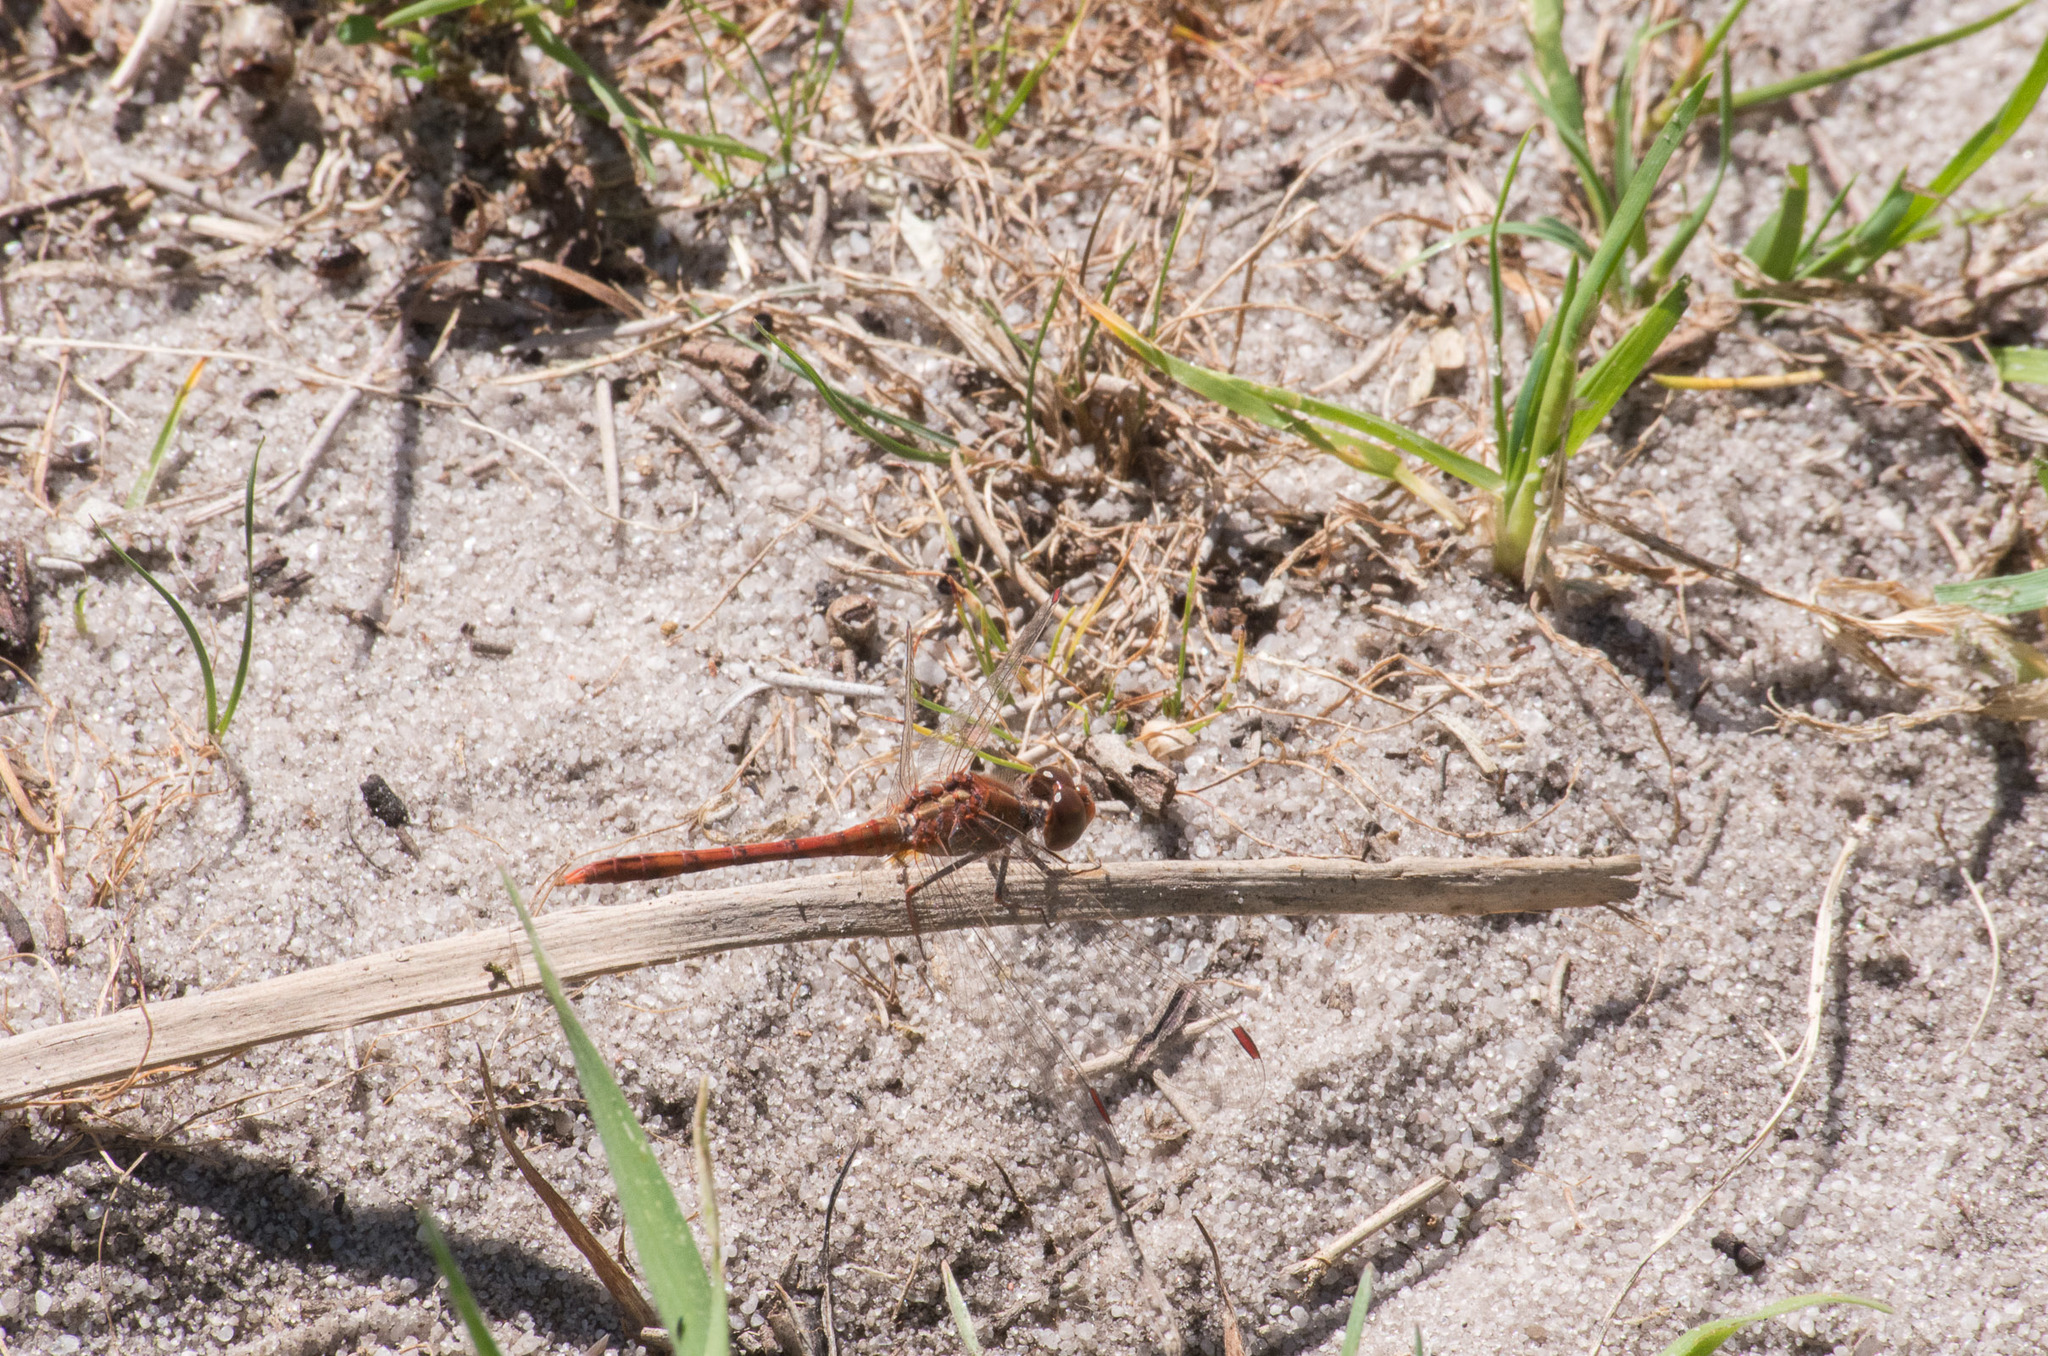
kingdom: Animalia
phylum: Arthropoda
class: Insecta
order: Odonata
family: Libellulidae
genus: Diplacodes
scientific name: Diplacodes bipunctata
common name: Red percher dragonfly
